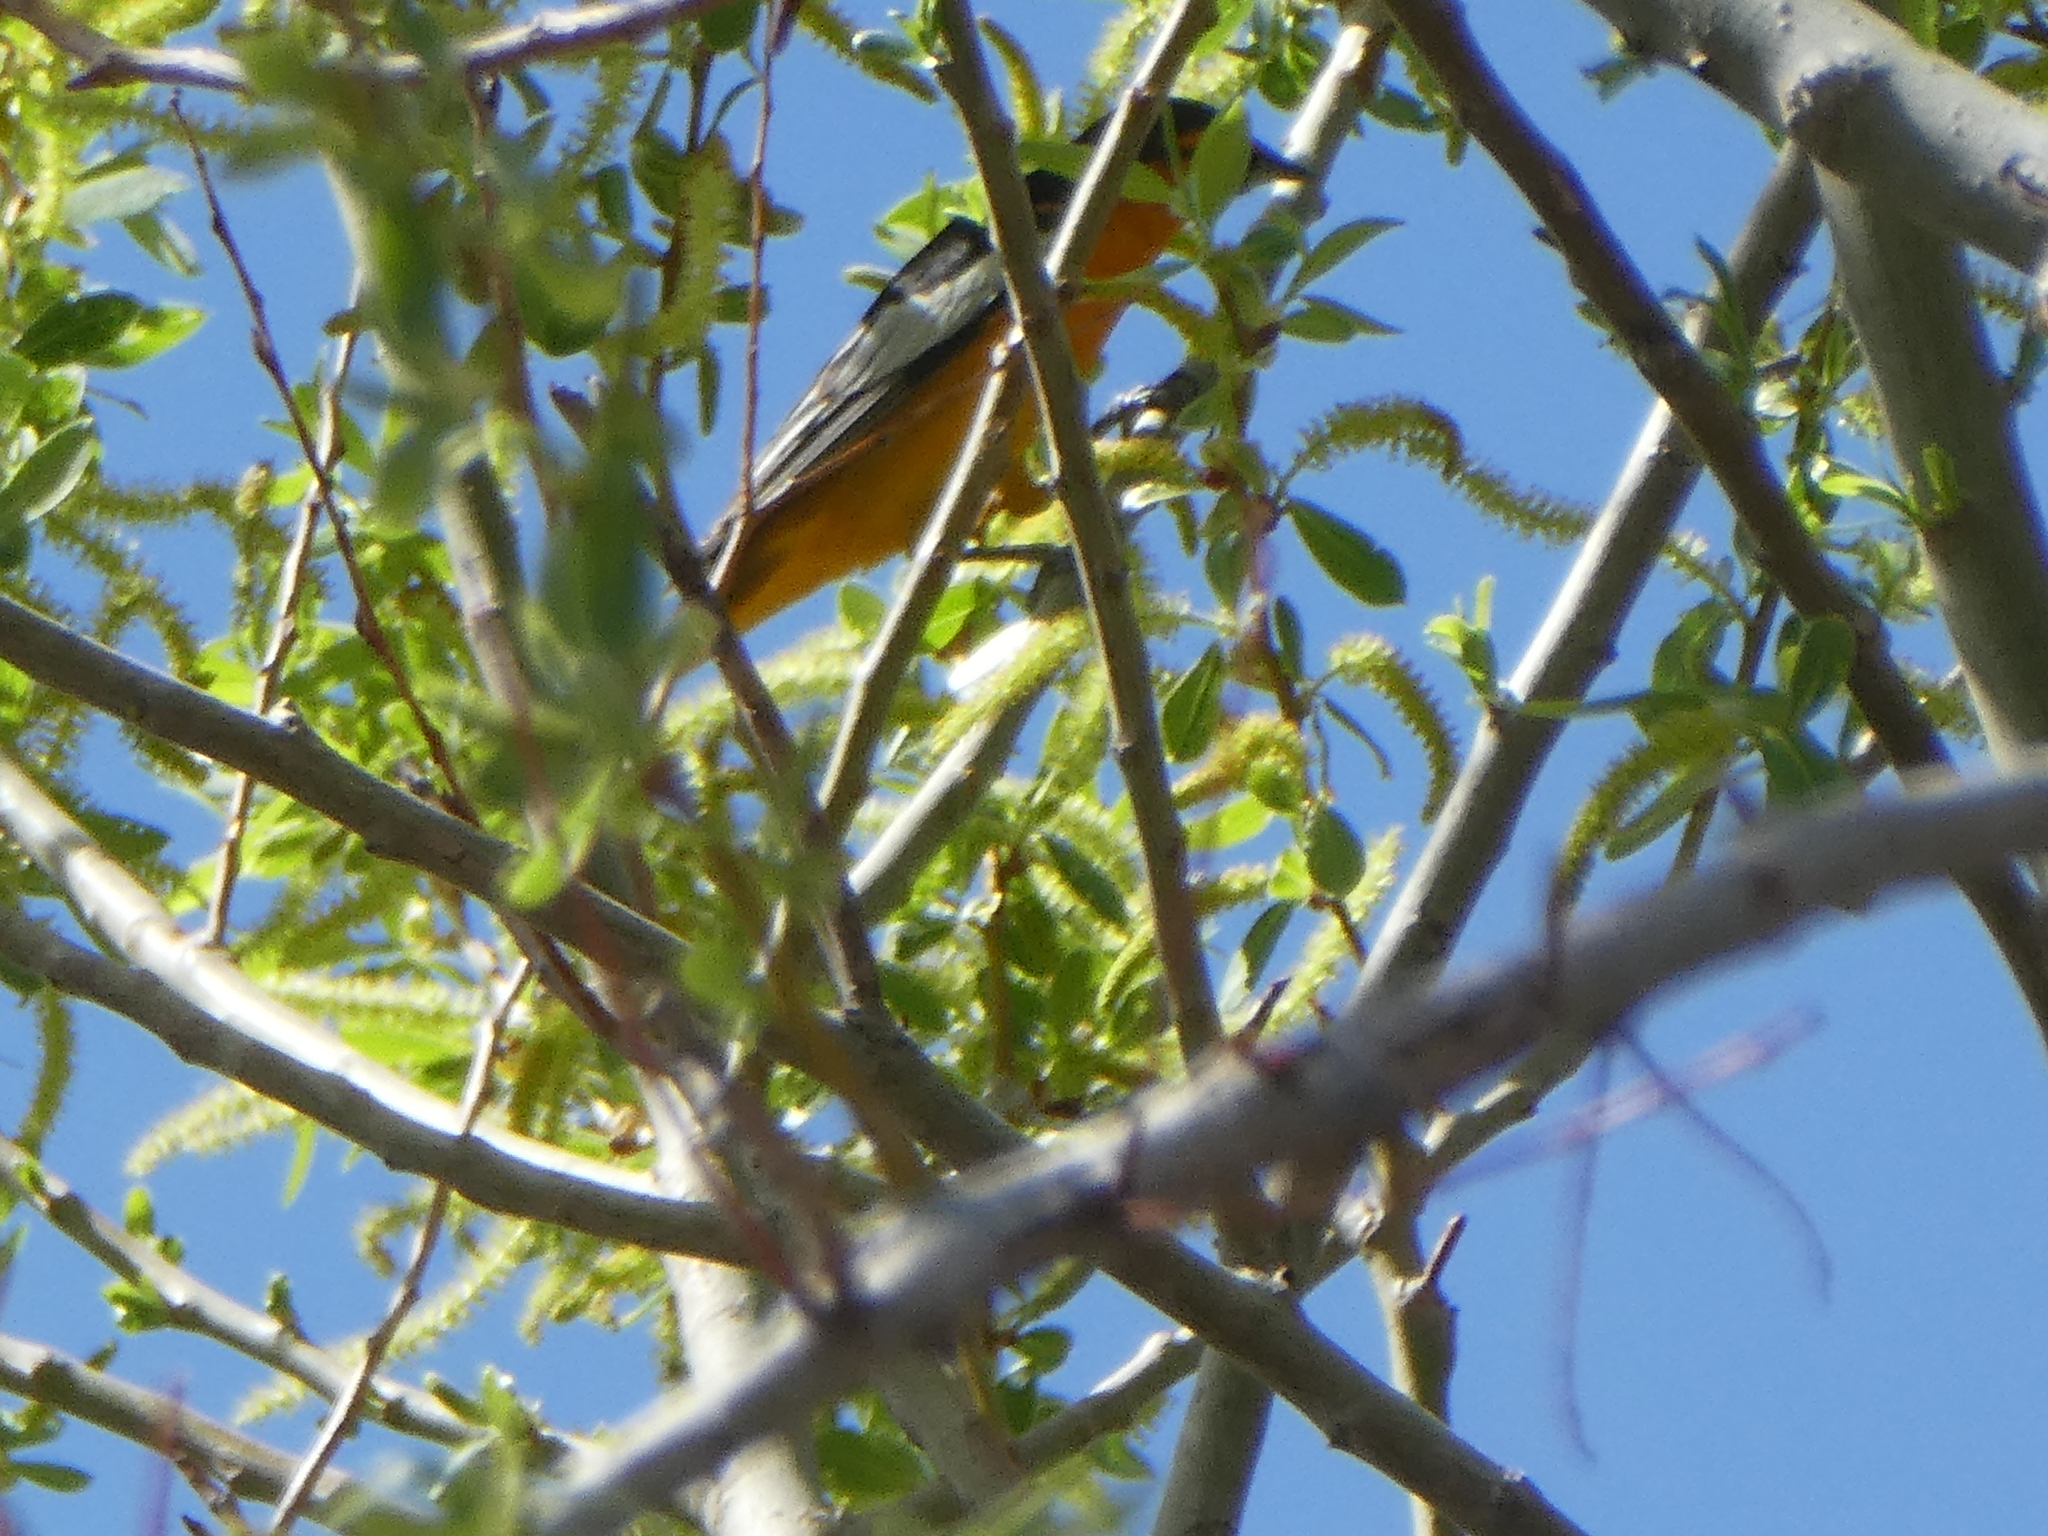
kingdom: Animalia
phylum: Chordata
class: Aves
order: Passeriformes
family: Icteridae
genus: Icterus
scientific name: Icterus bullockii
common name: Bullock's oriole
